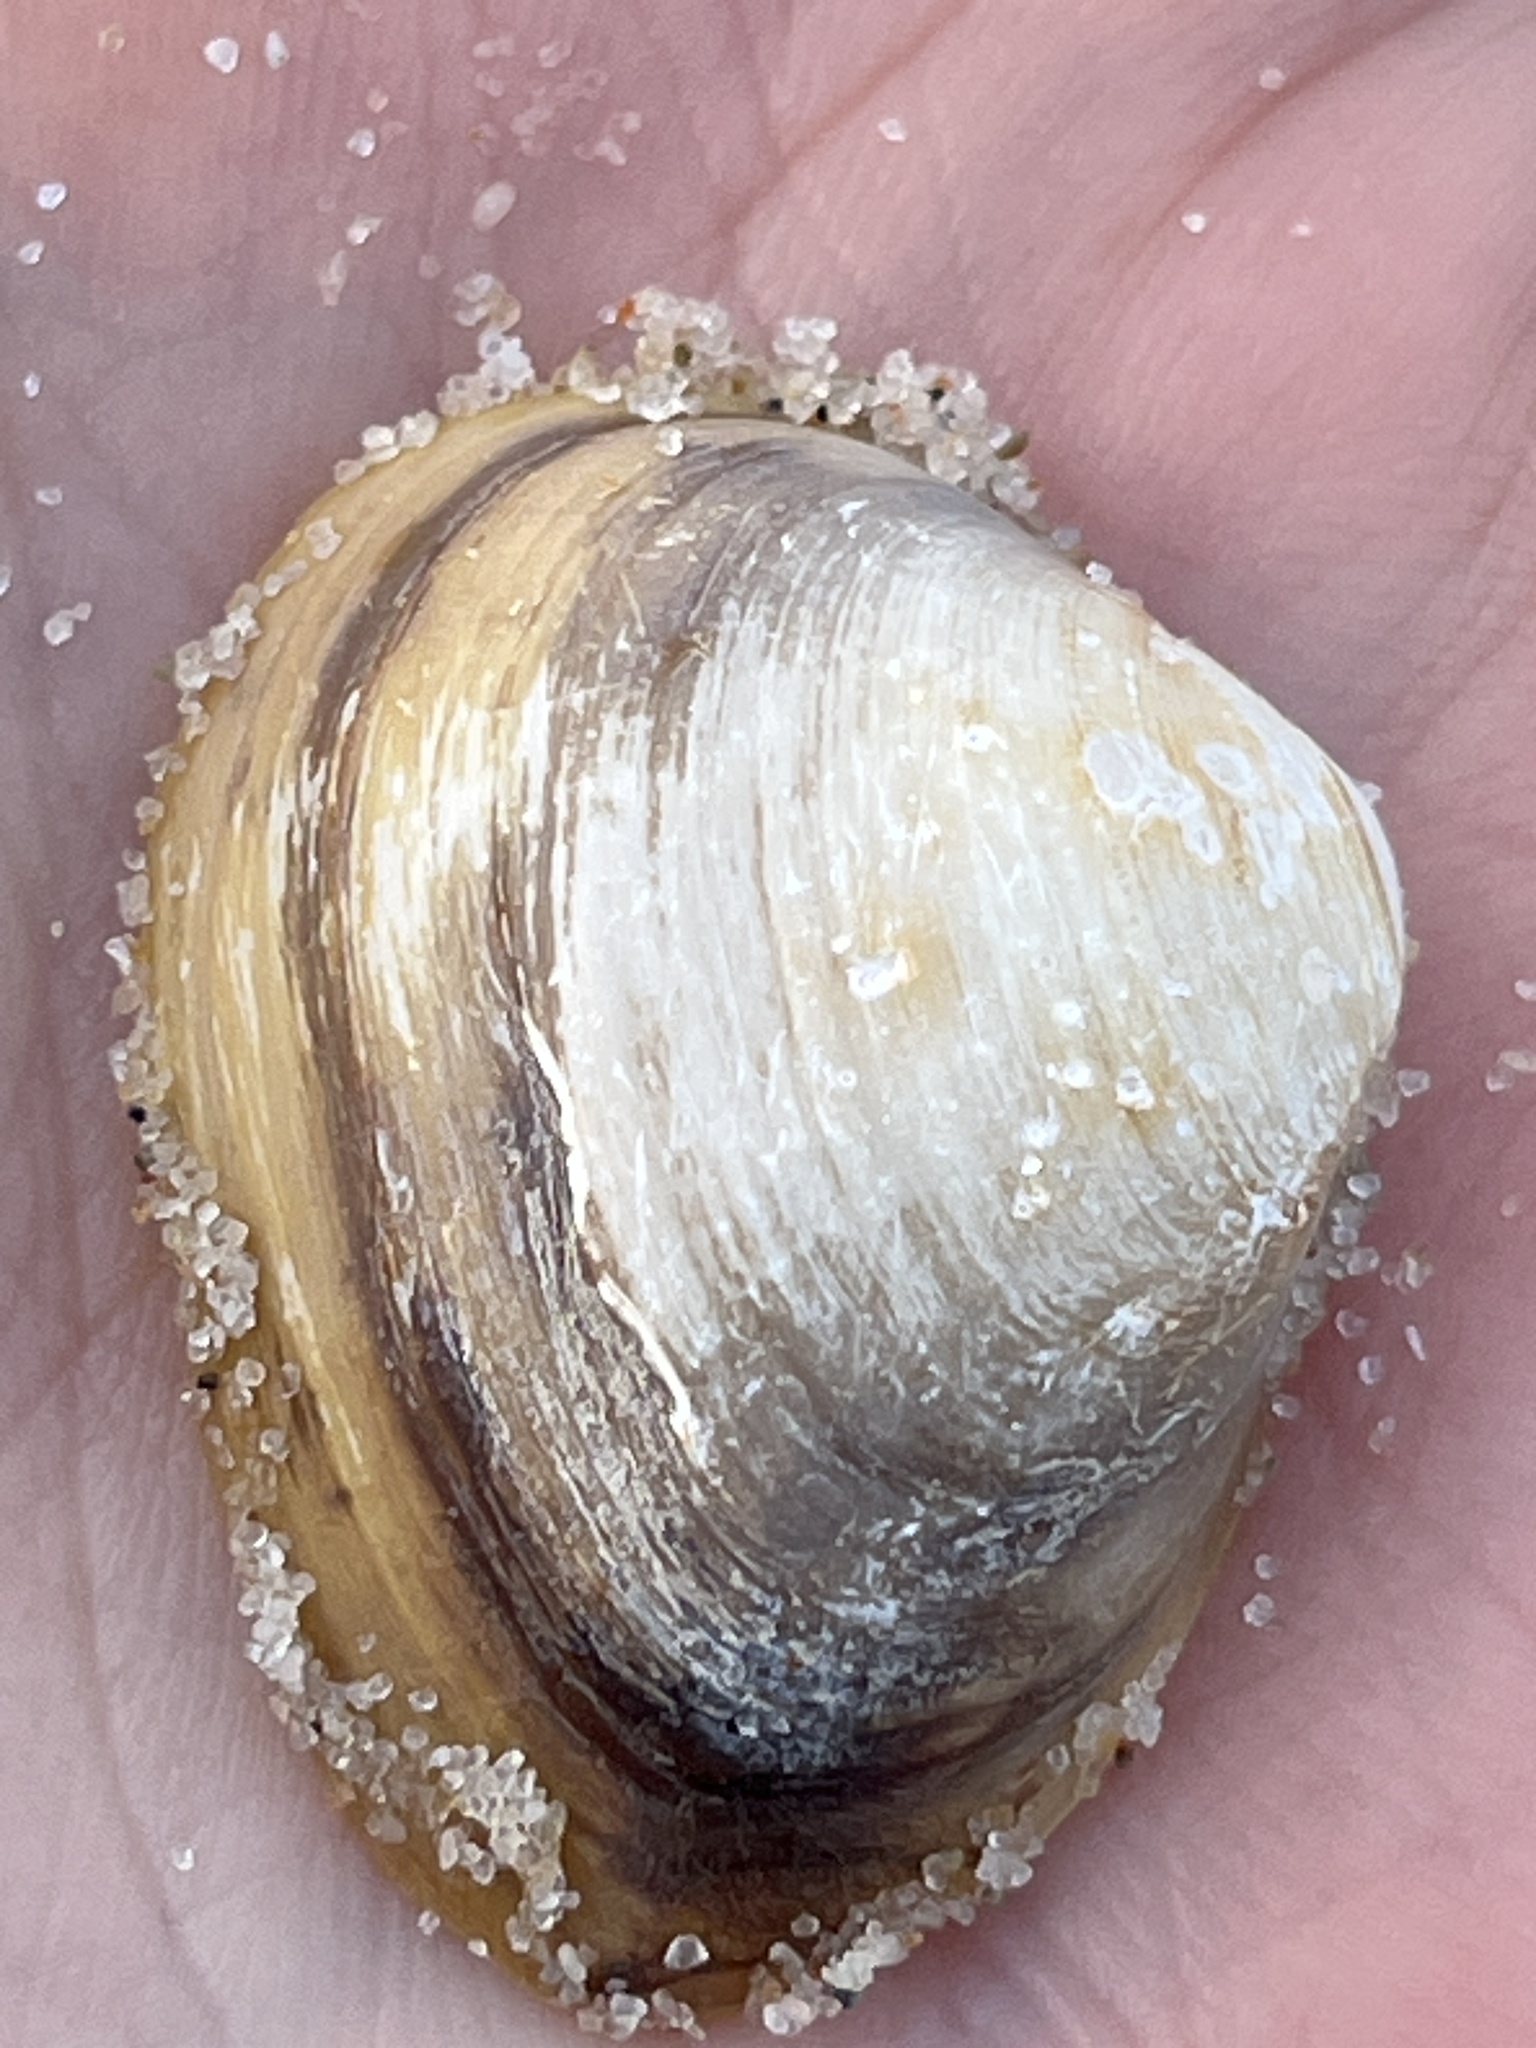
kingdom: Animalia
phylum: Mollusca
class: Bivalvia
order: Venerida
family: Mactridae
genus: Rangia
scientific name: Rangia cuneata
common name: Atlantic rangia
